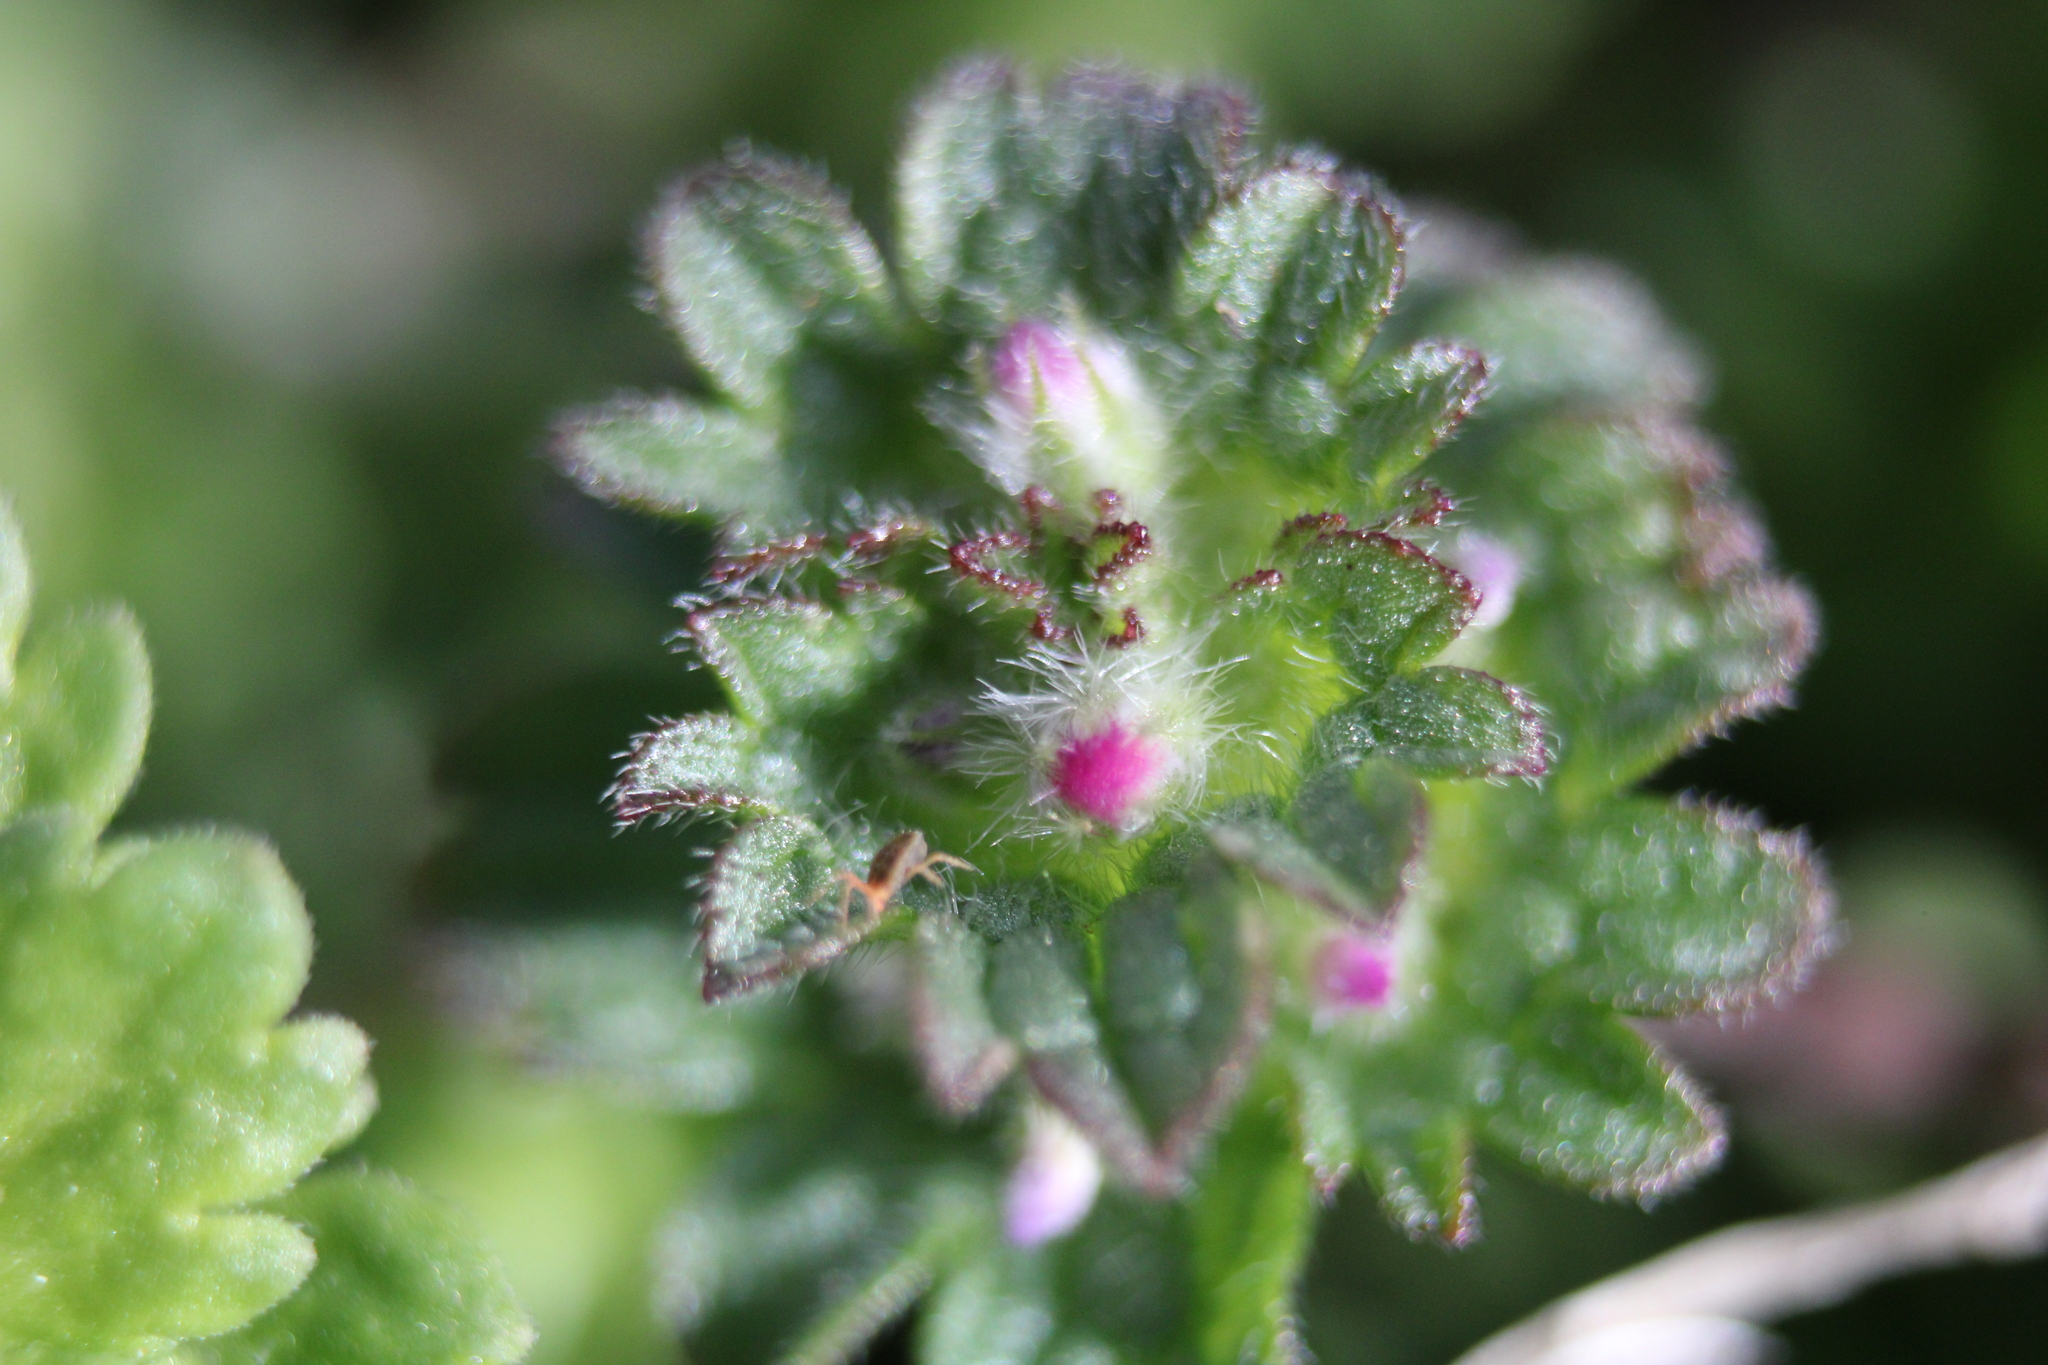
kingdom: Plantae
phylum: Tracheophyta
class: Magnoliopsida
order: Lamiales
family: Lamiaceae
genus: Lamium
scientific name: Lamium amplexicaule
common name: Henbit dead-nettle
